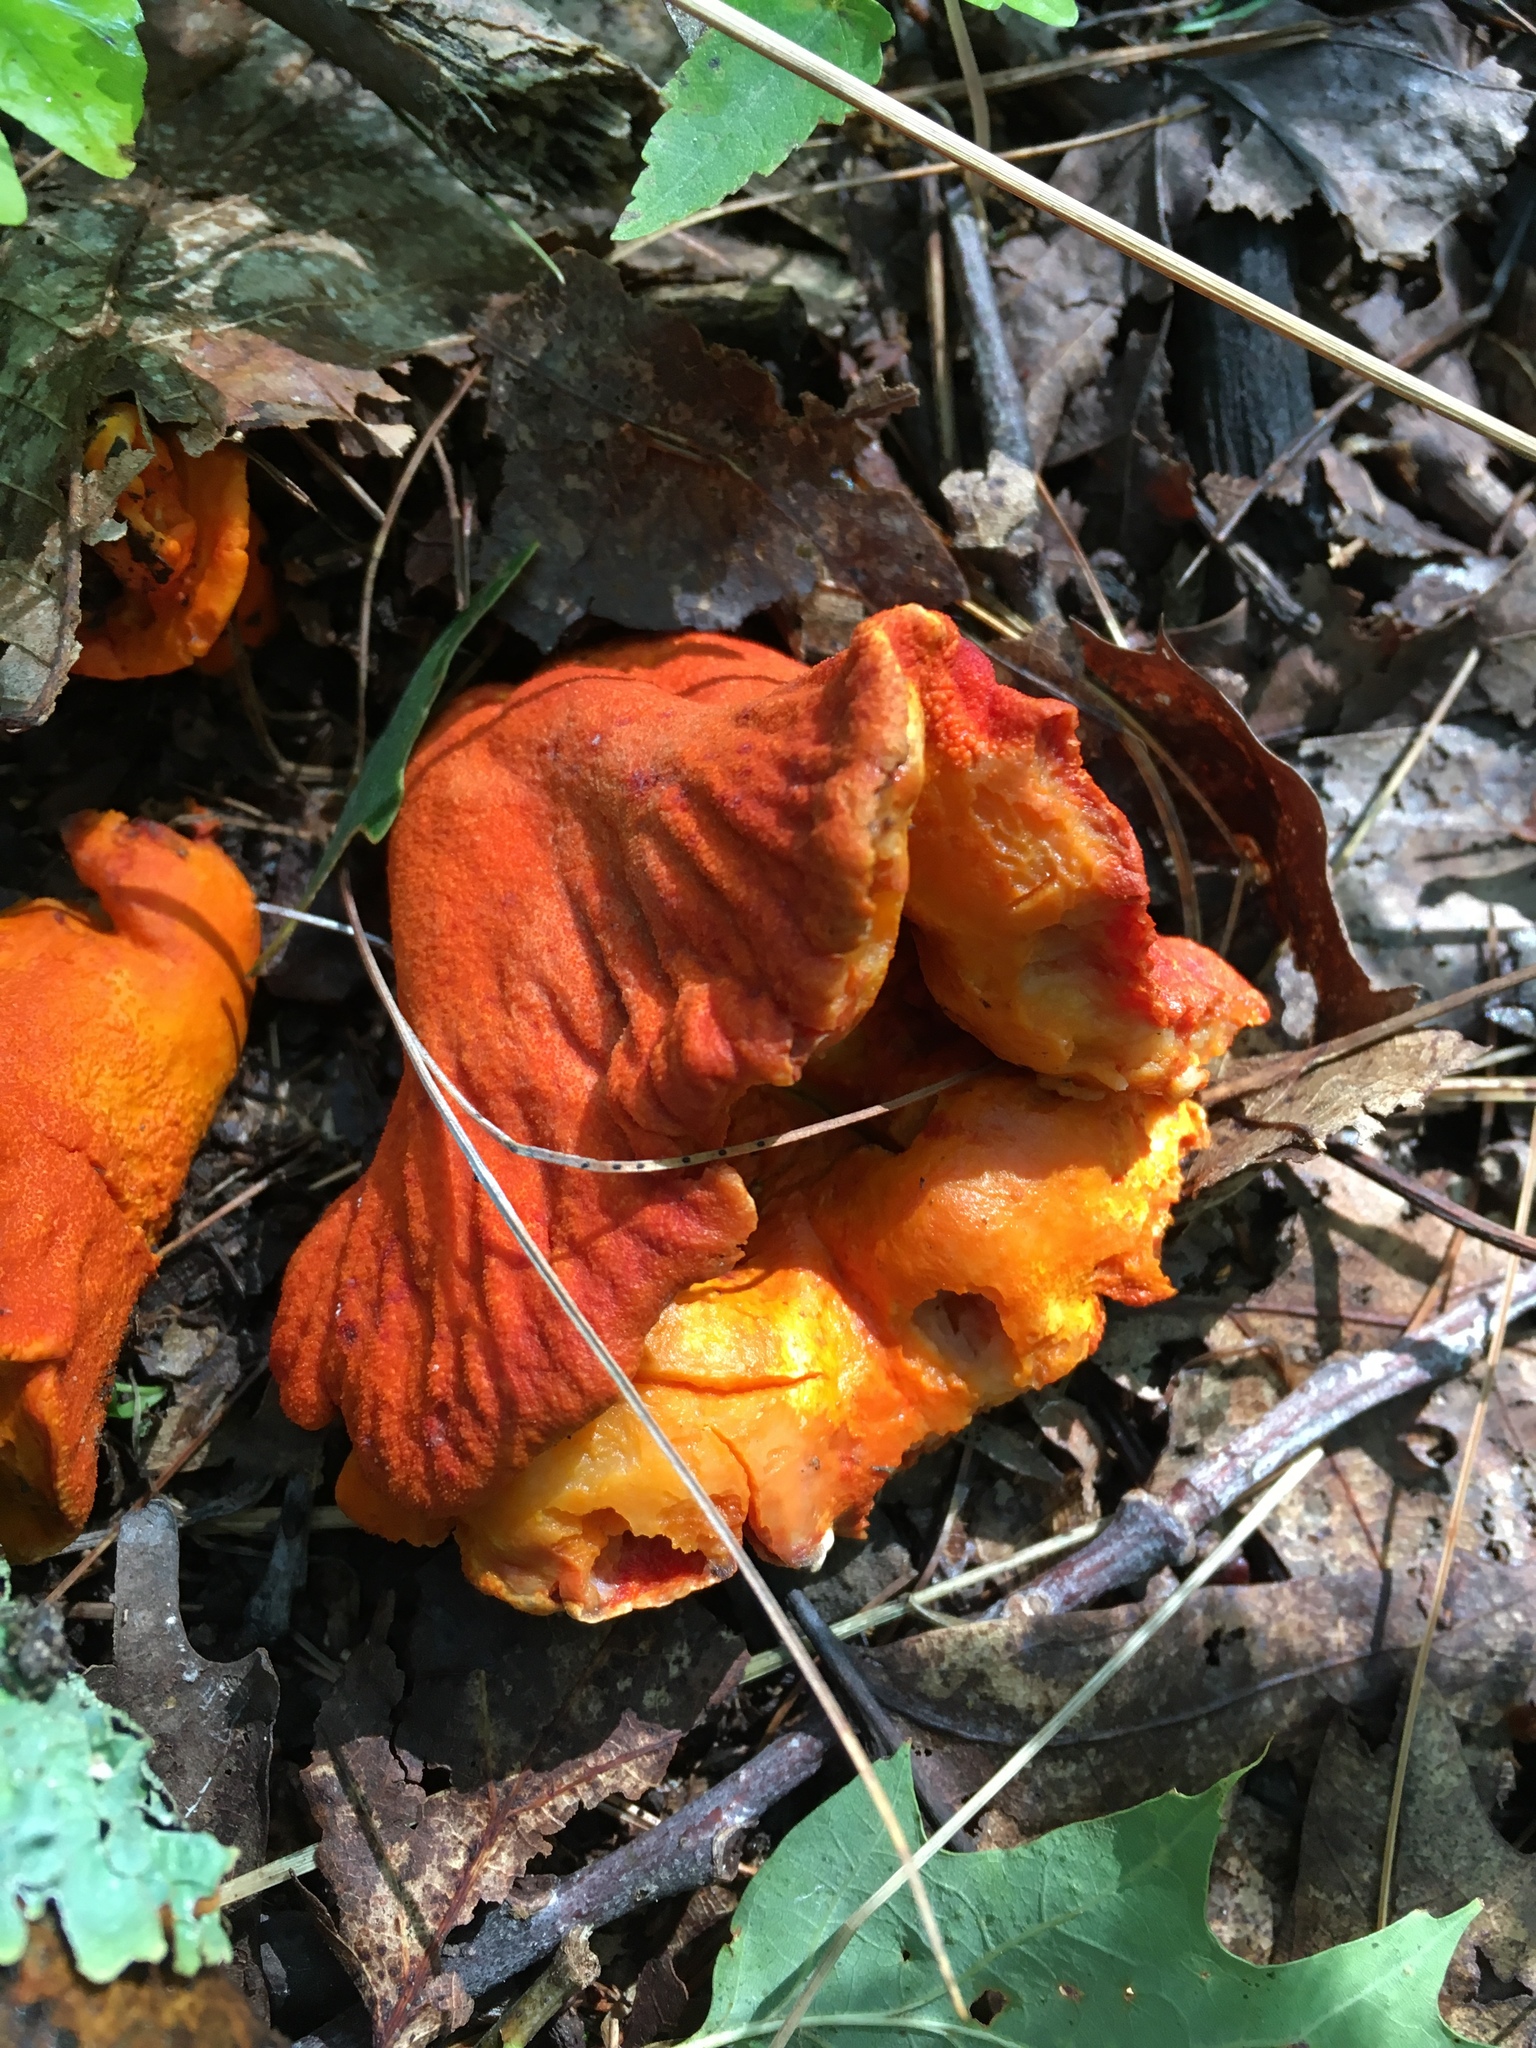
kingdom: Fungi
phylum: Ascomycota
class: Sordariomycetes
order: Hypocreales
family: Hypocreaceae
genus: Hypomyces
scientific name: Hypomyces lactifluorum
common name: Lobster mushroom
